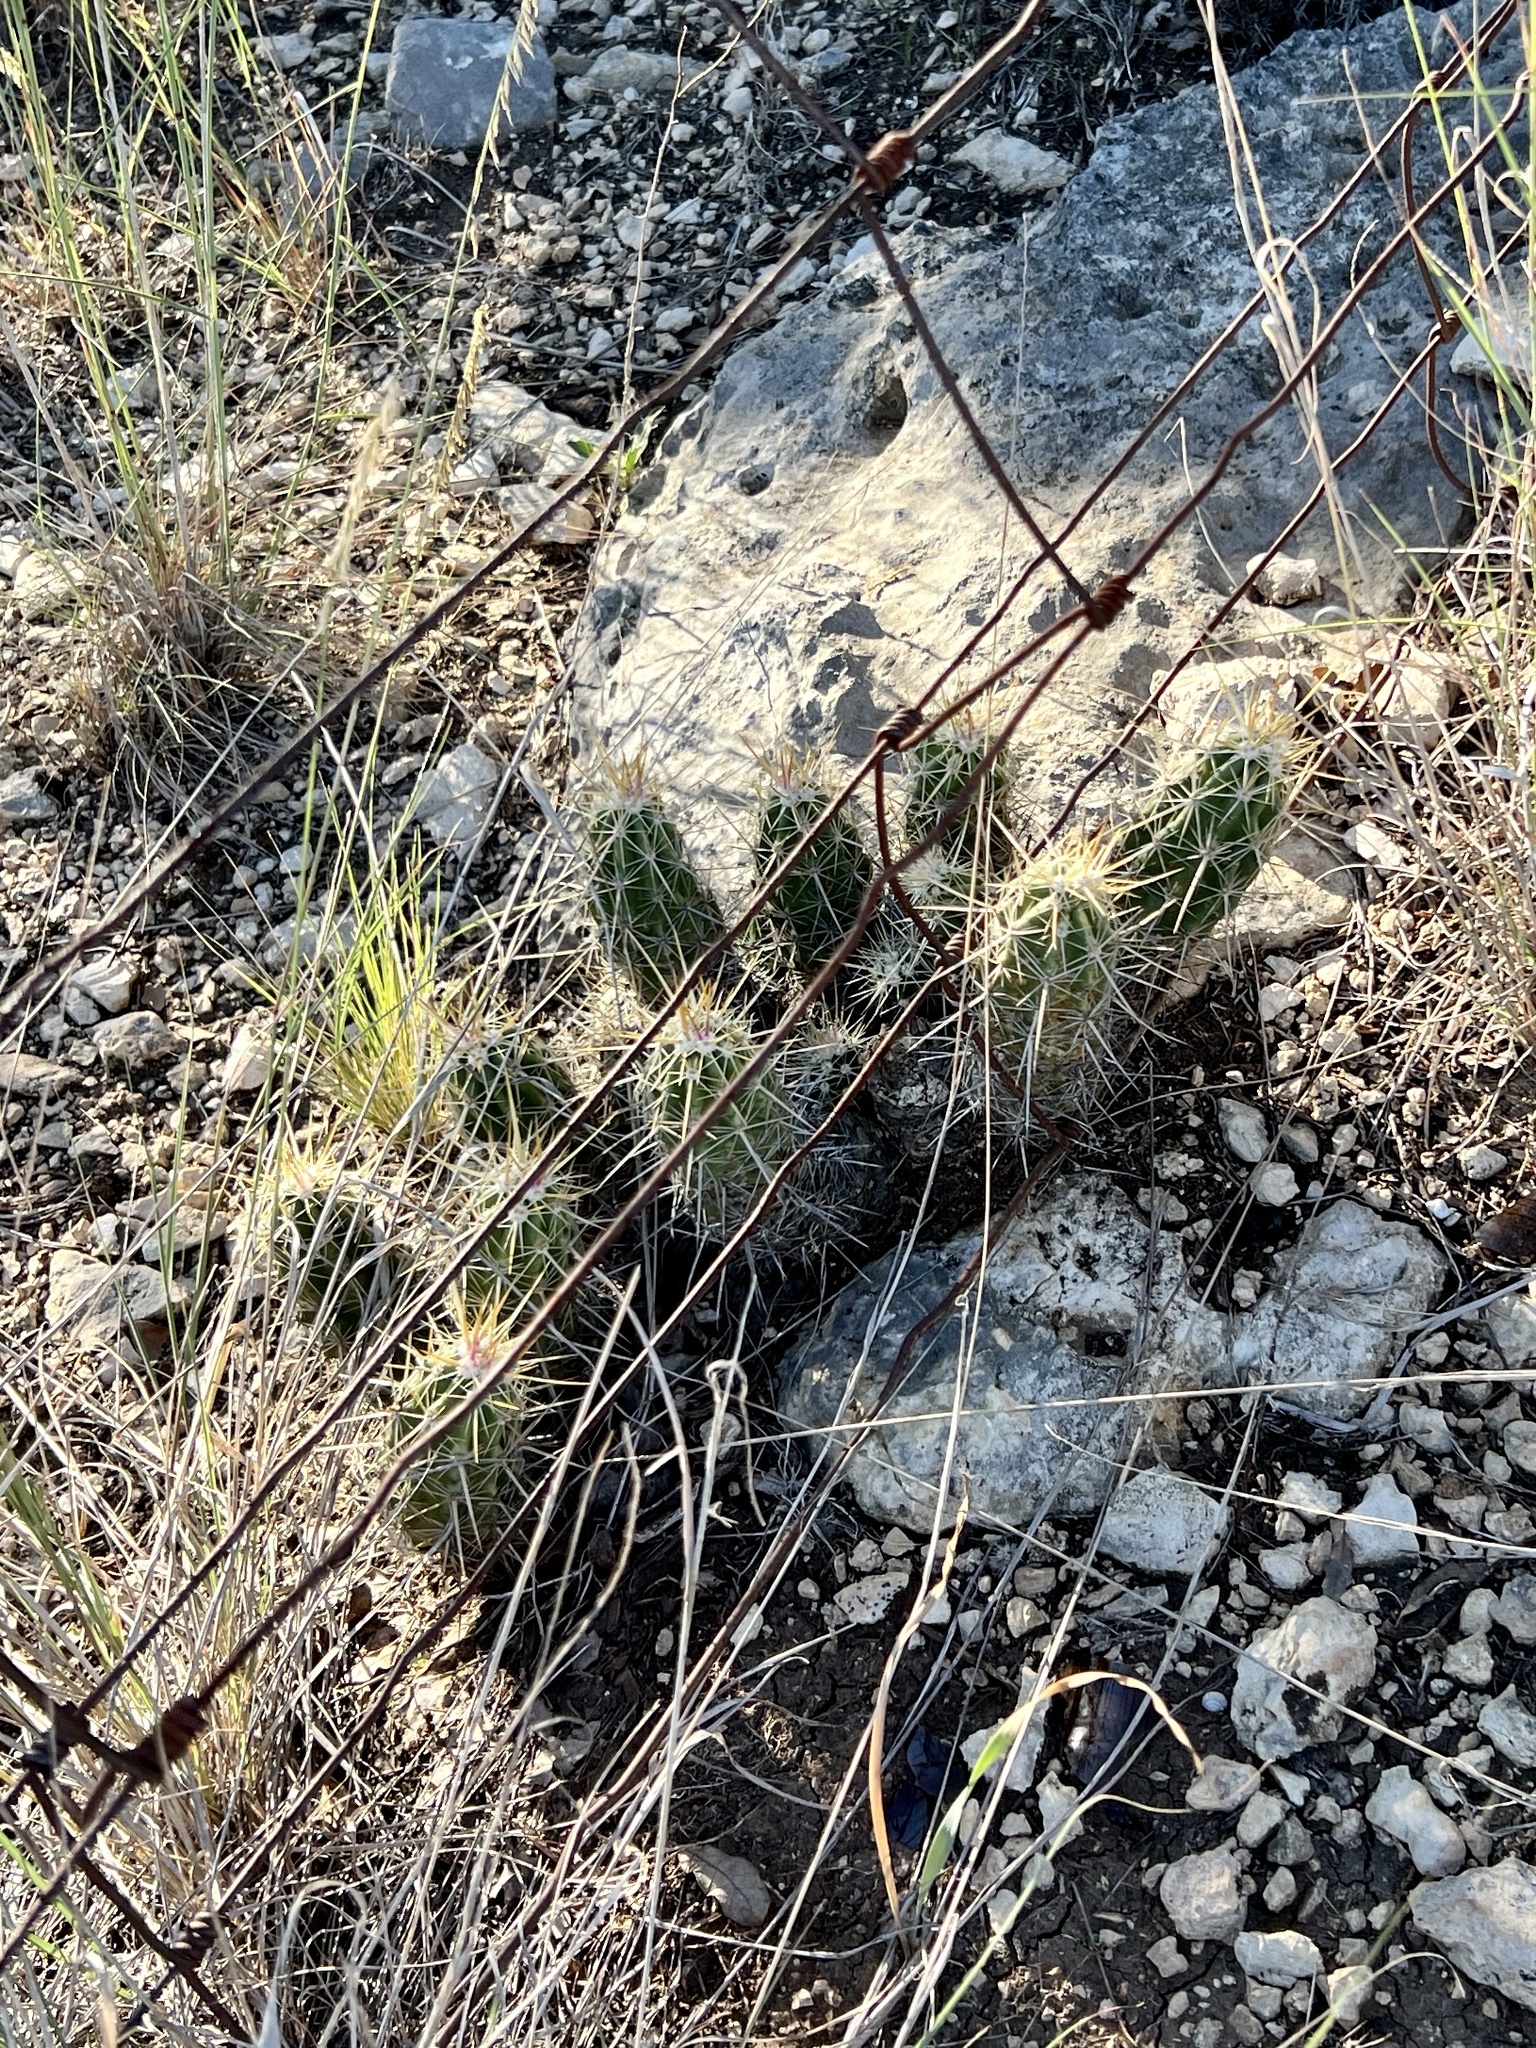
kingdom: Plantae
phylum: Tracheophyta
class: Magnoliopsida
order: Caryophyllales
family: Cactaceae
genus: Echinocereus
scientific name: Echinocereus enneacanthus
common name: Pitaya
